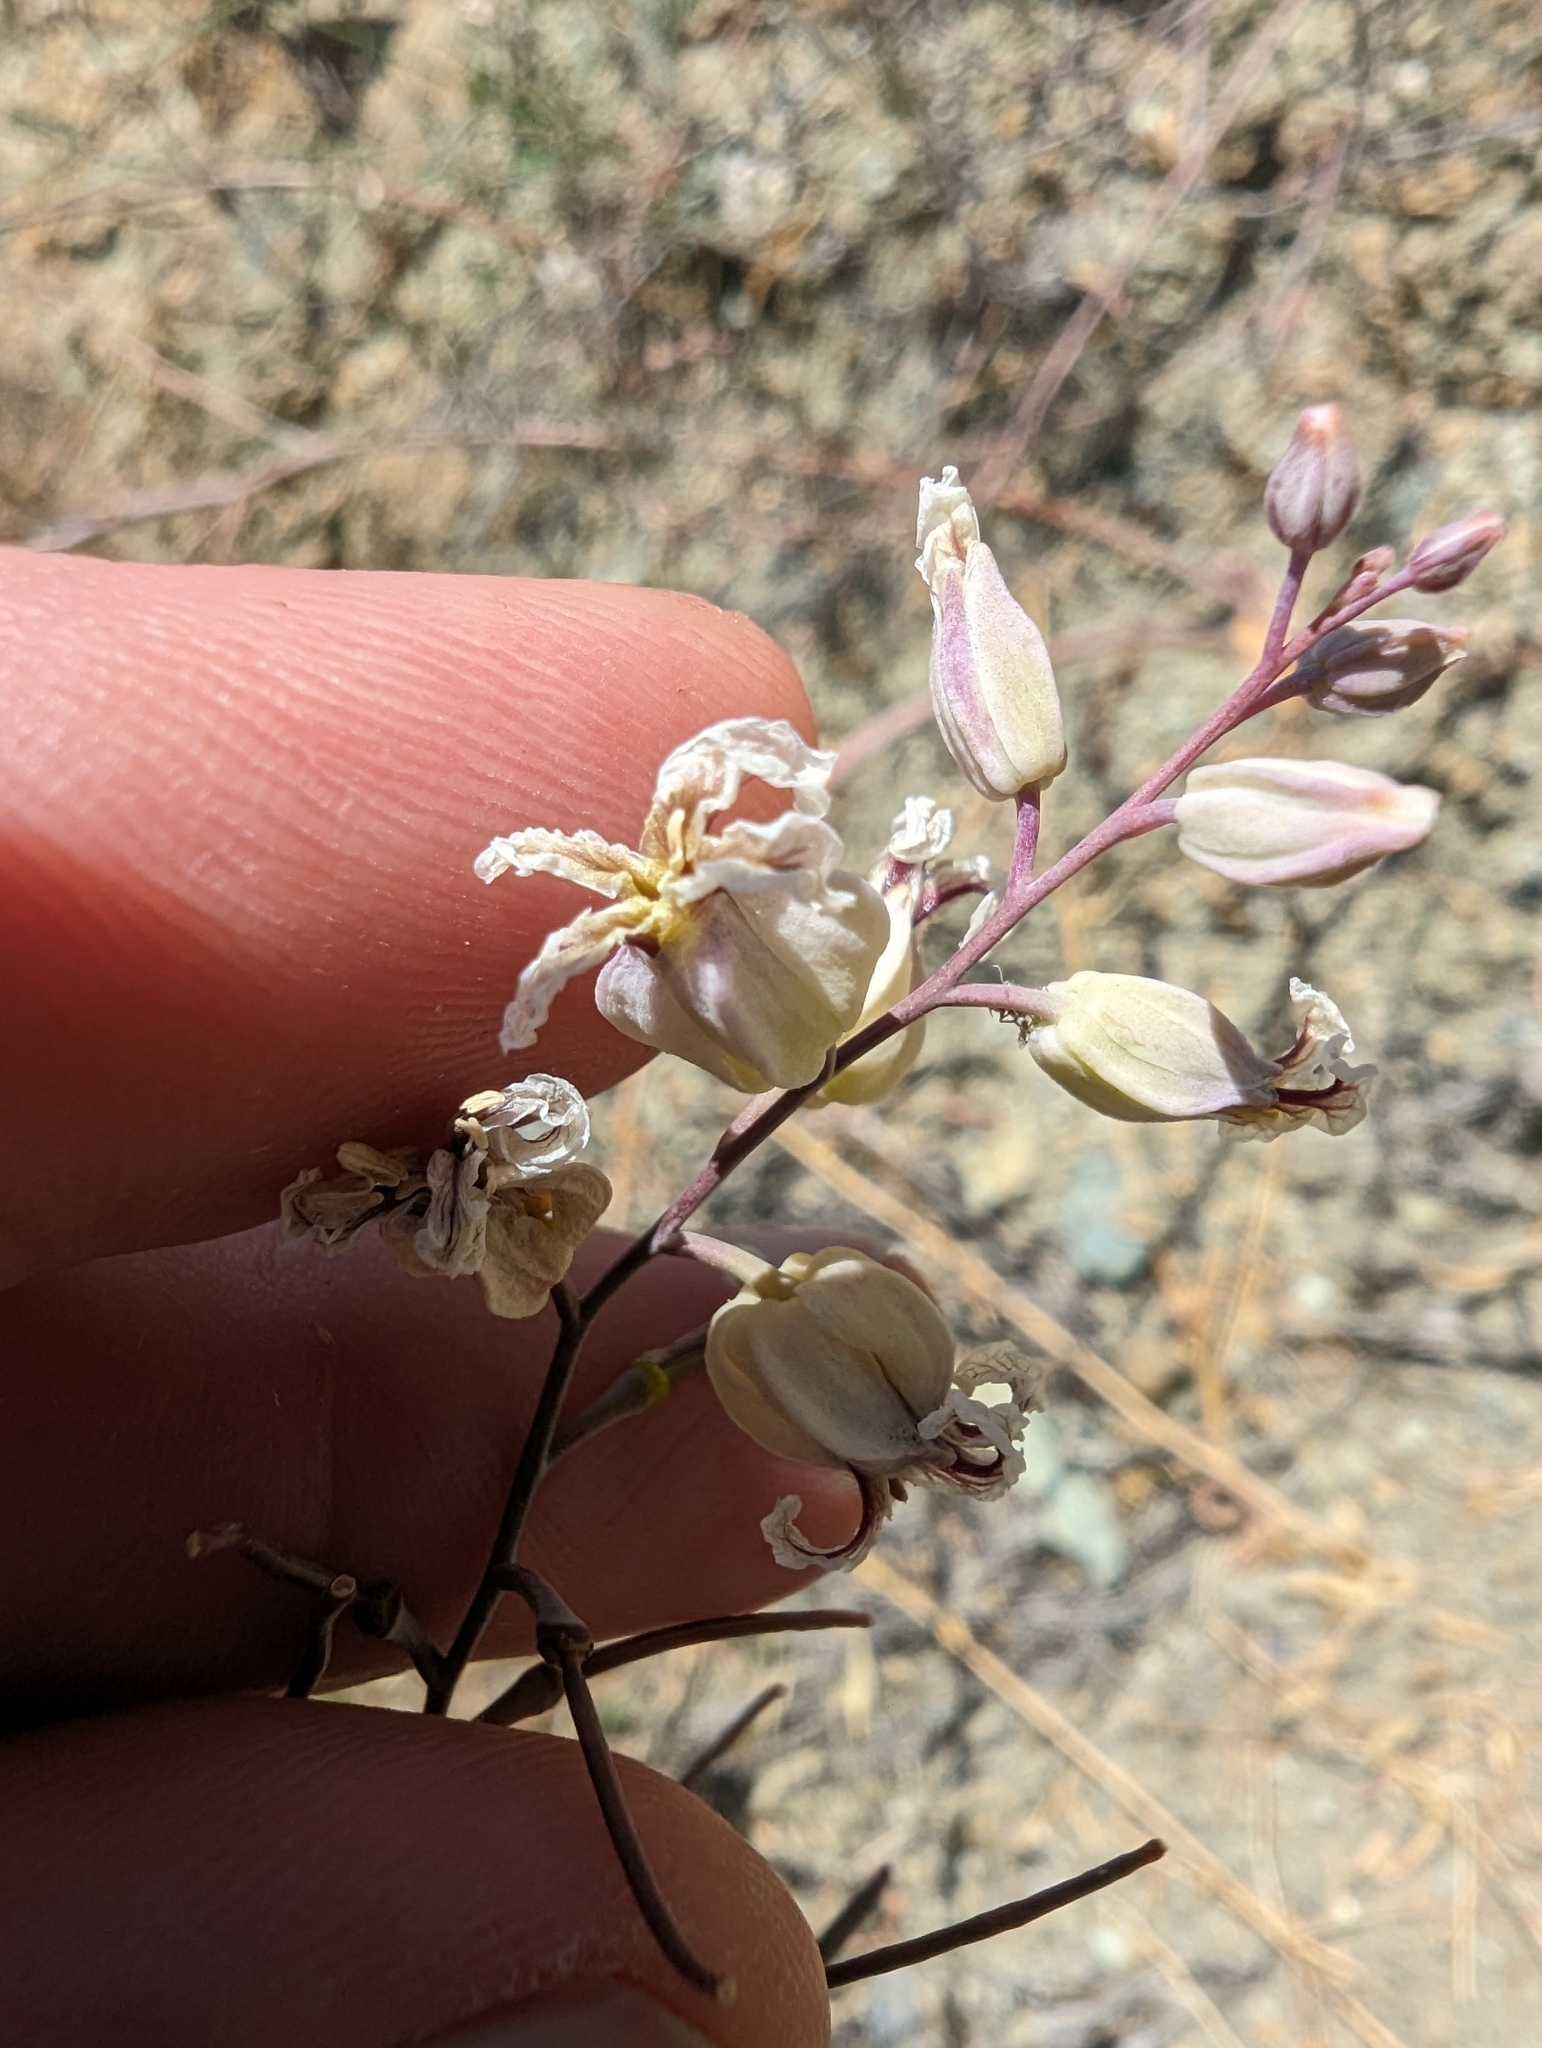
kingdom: Plantae
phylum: Tracheophyta
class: Magnoliopsida
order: Brassicales
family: Brassicaceae
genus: Streptanthus
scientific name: Streptanthus glandulosus
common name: Jewel-flower
